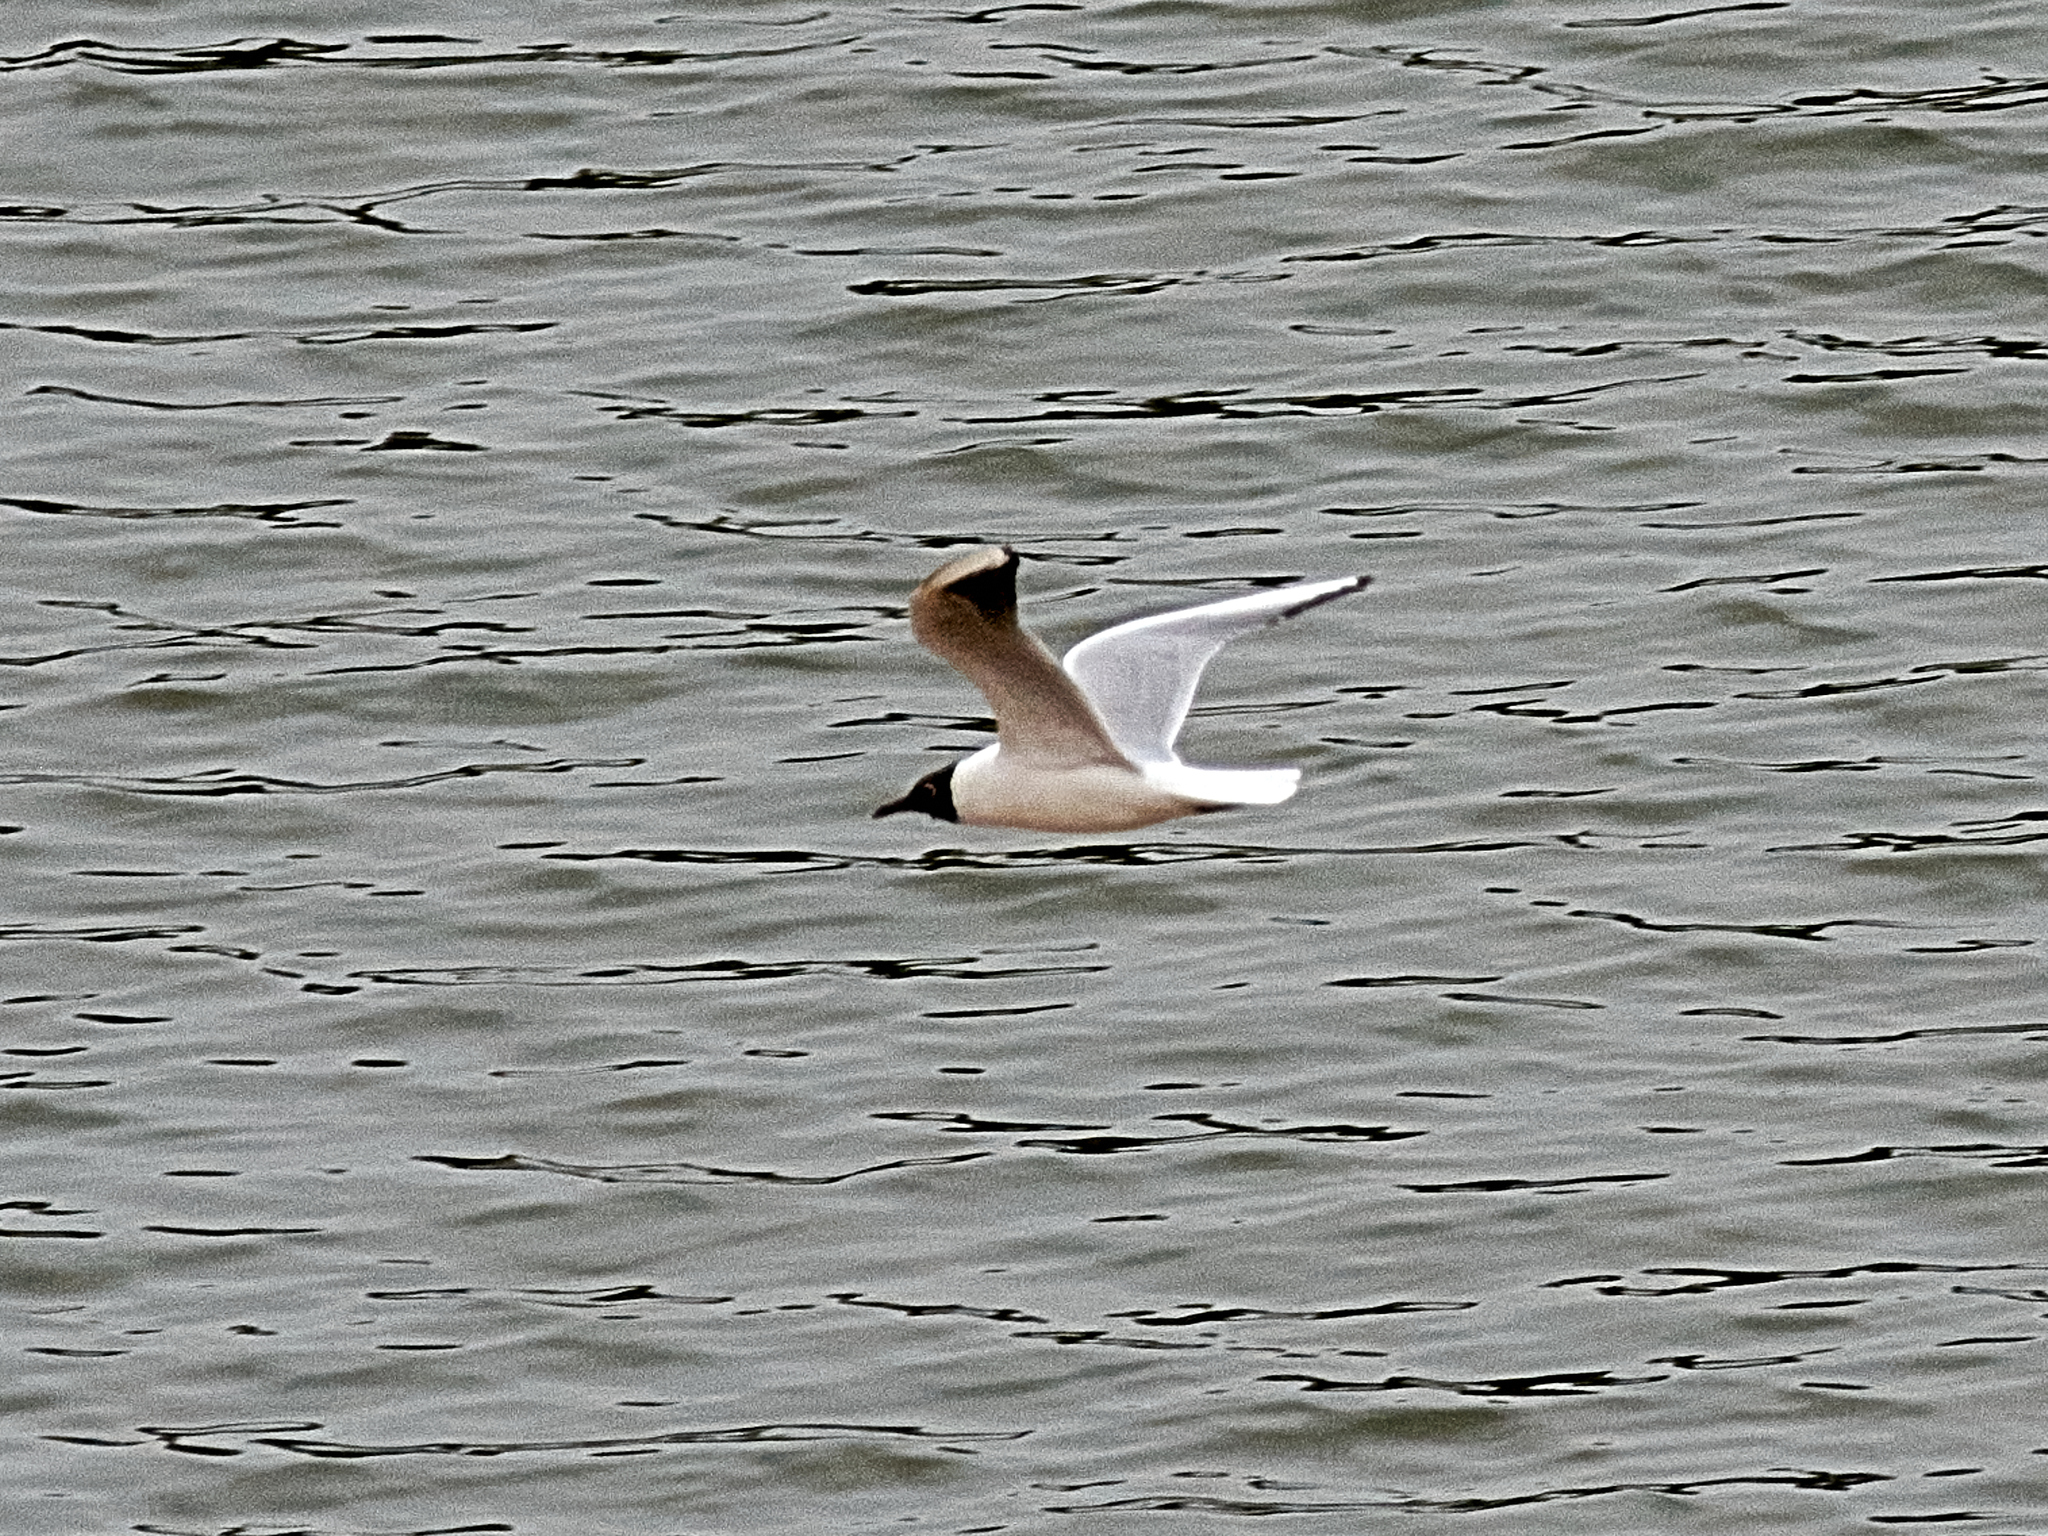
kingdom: Animalia
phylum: Chordata
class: Aves
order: Charadriiformes
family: Laridae
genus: Chroicocephalus
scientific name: Chroicocephalus ridibundus
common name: Black-headed gull
